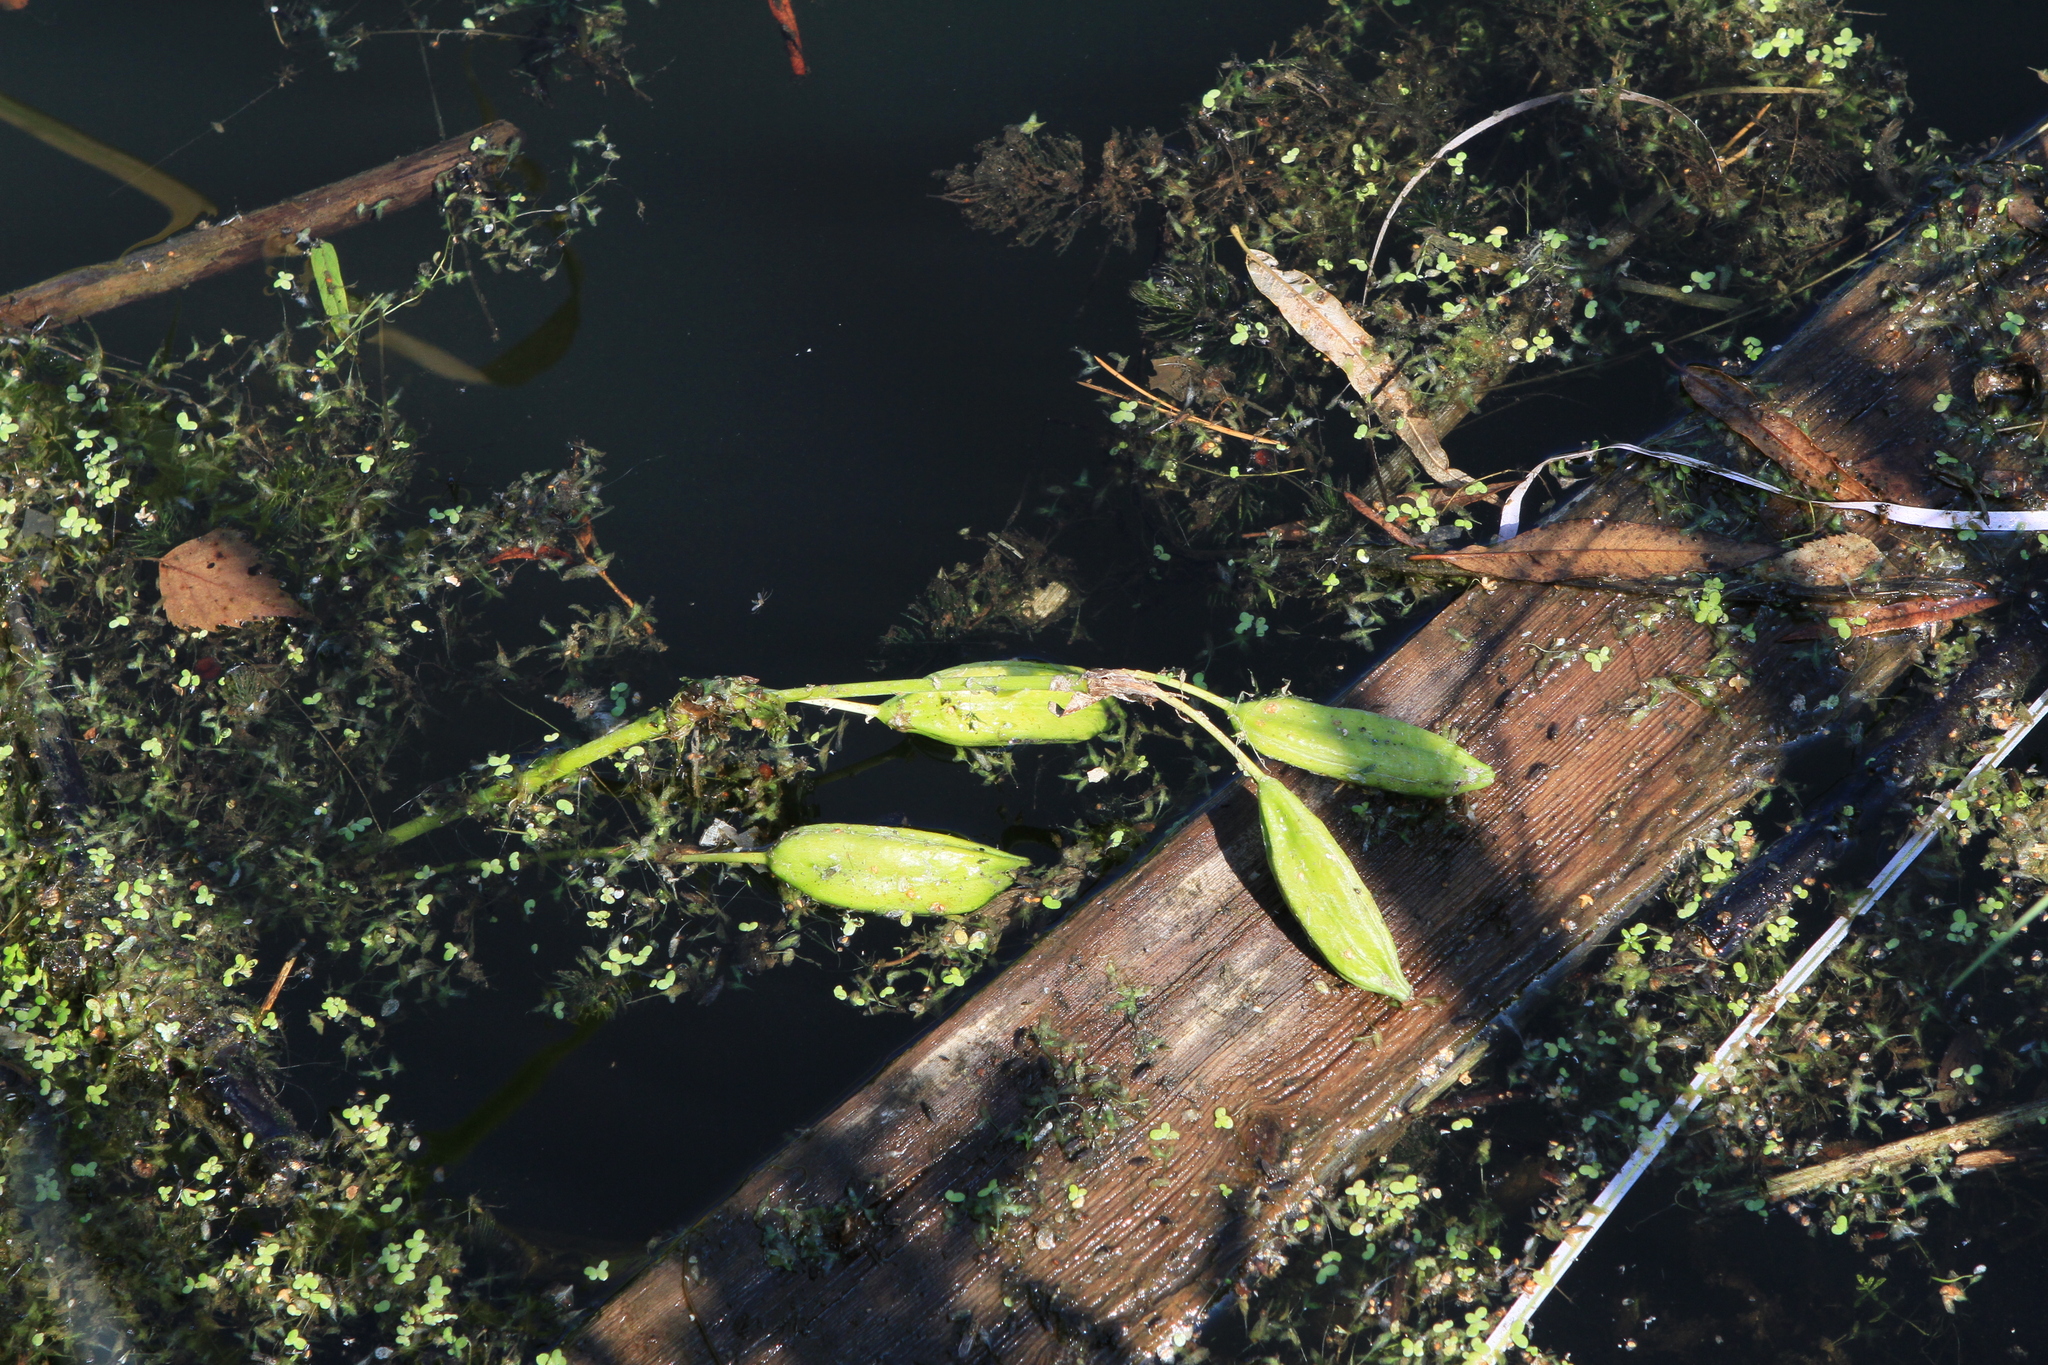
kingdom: Plantae
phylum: Tracheophyta
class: Liliopsida
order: Asparagales
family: Iridaceae
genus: Iris
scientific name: Iris pseudacorus
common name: Yellow flag
